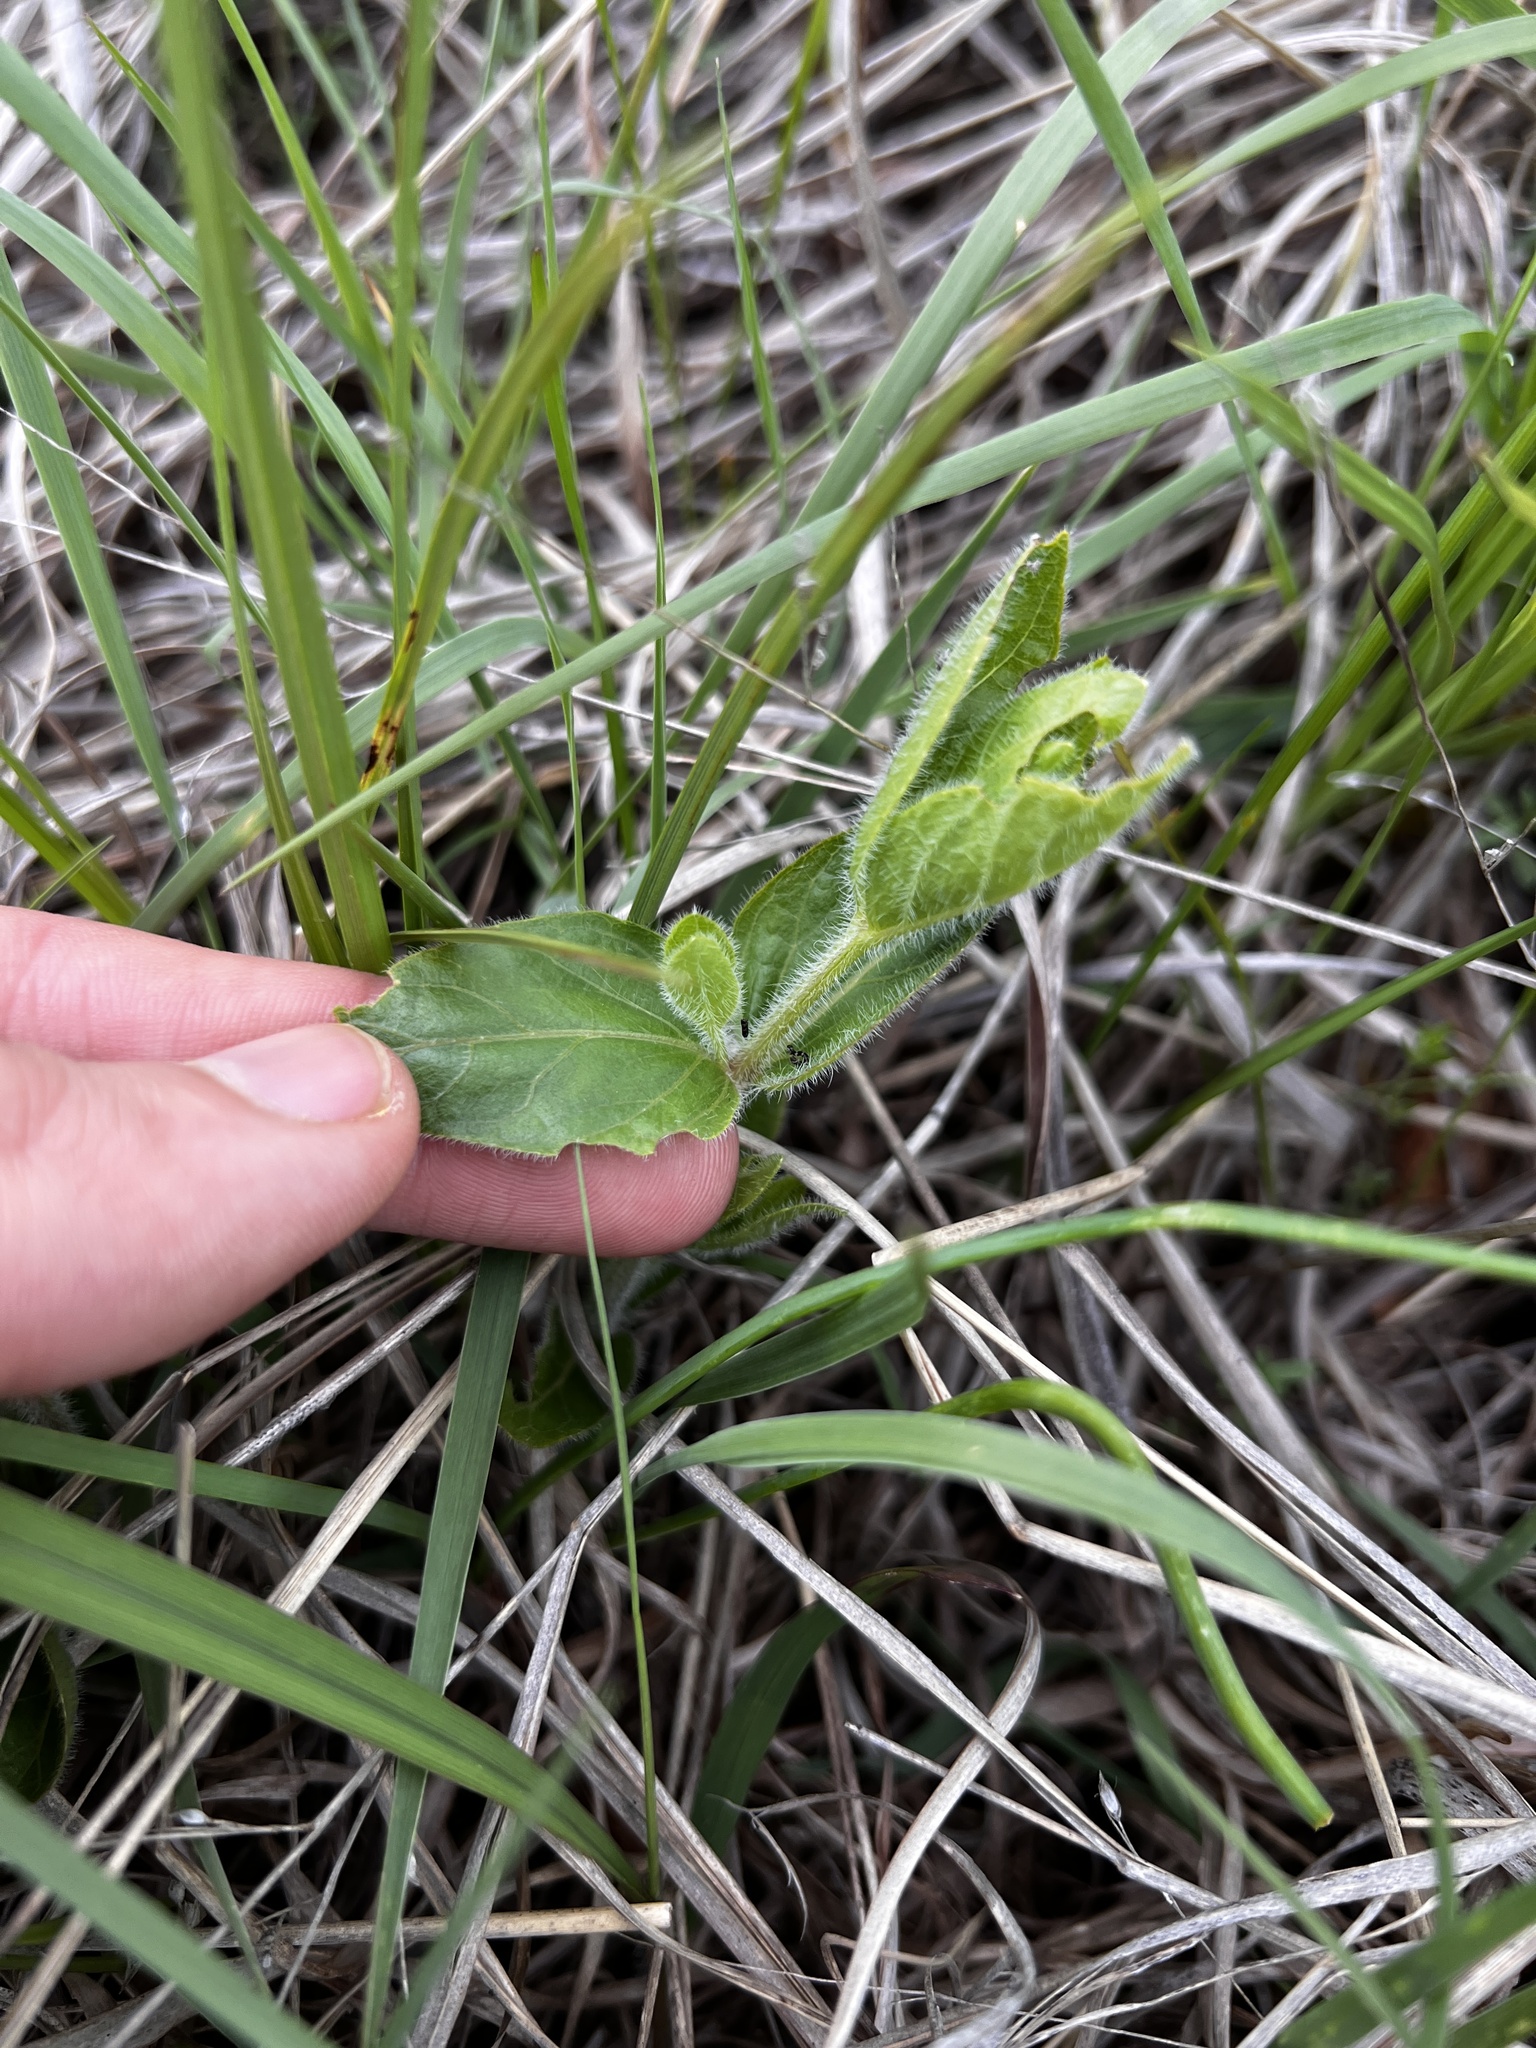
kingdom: Plantae
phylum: Tracheophyta
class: Magnoliopsida
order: Lamiales
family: Acanthaceae
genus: Ruellia
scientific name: Ruellia humilis
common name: Fringe-leaf ruellia
